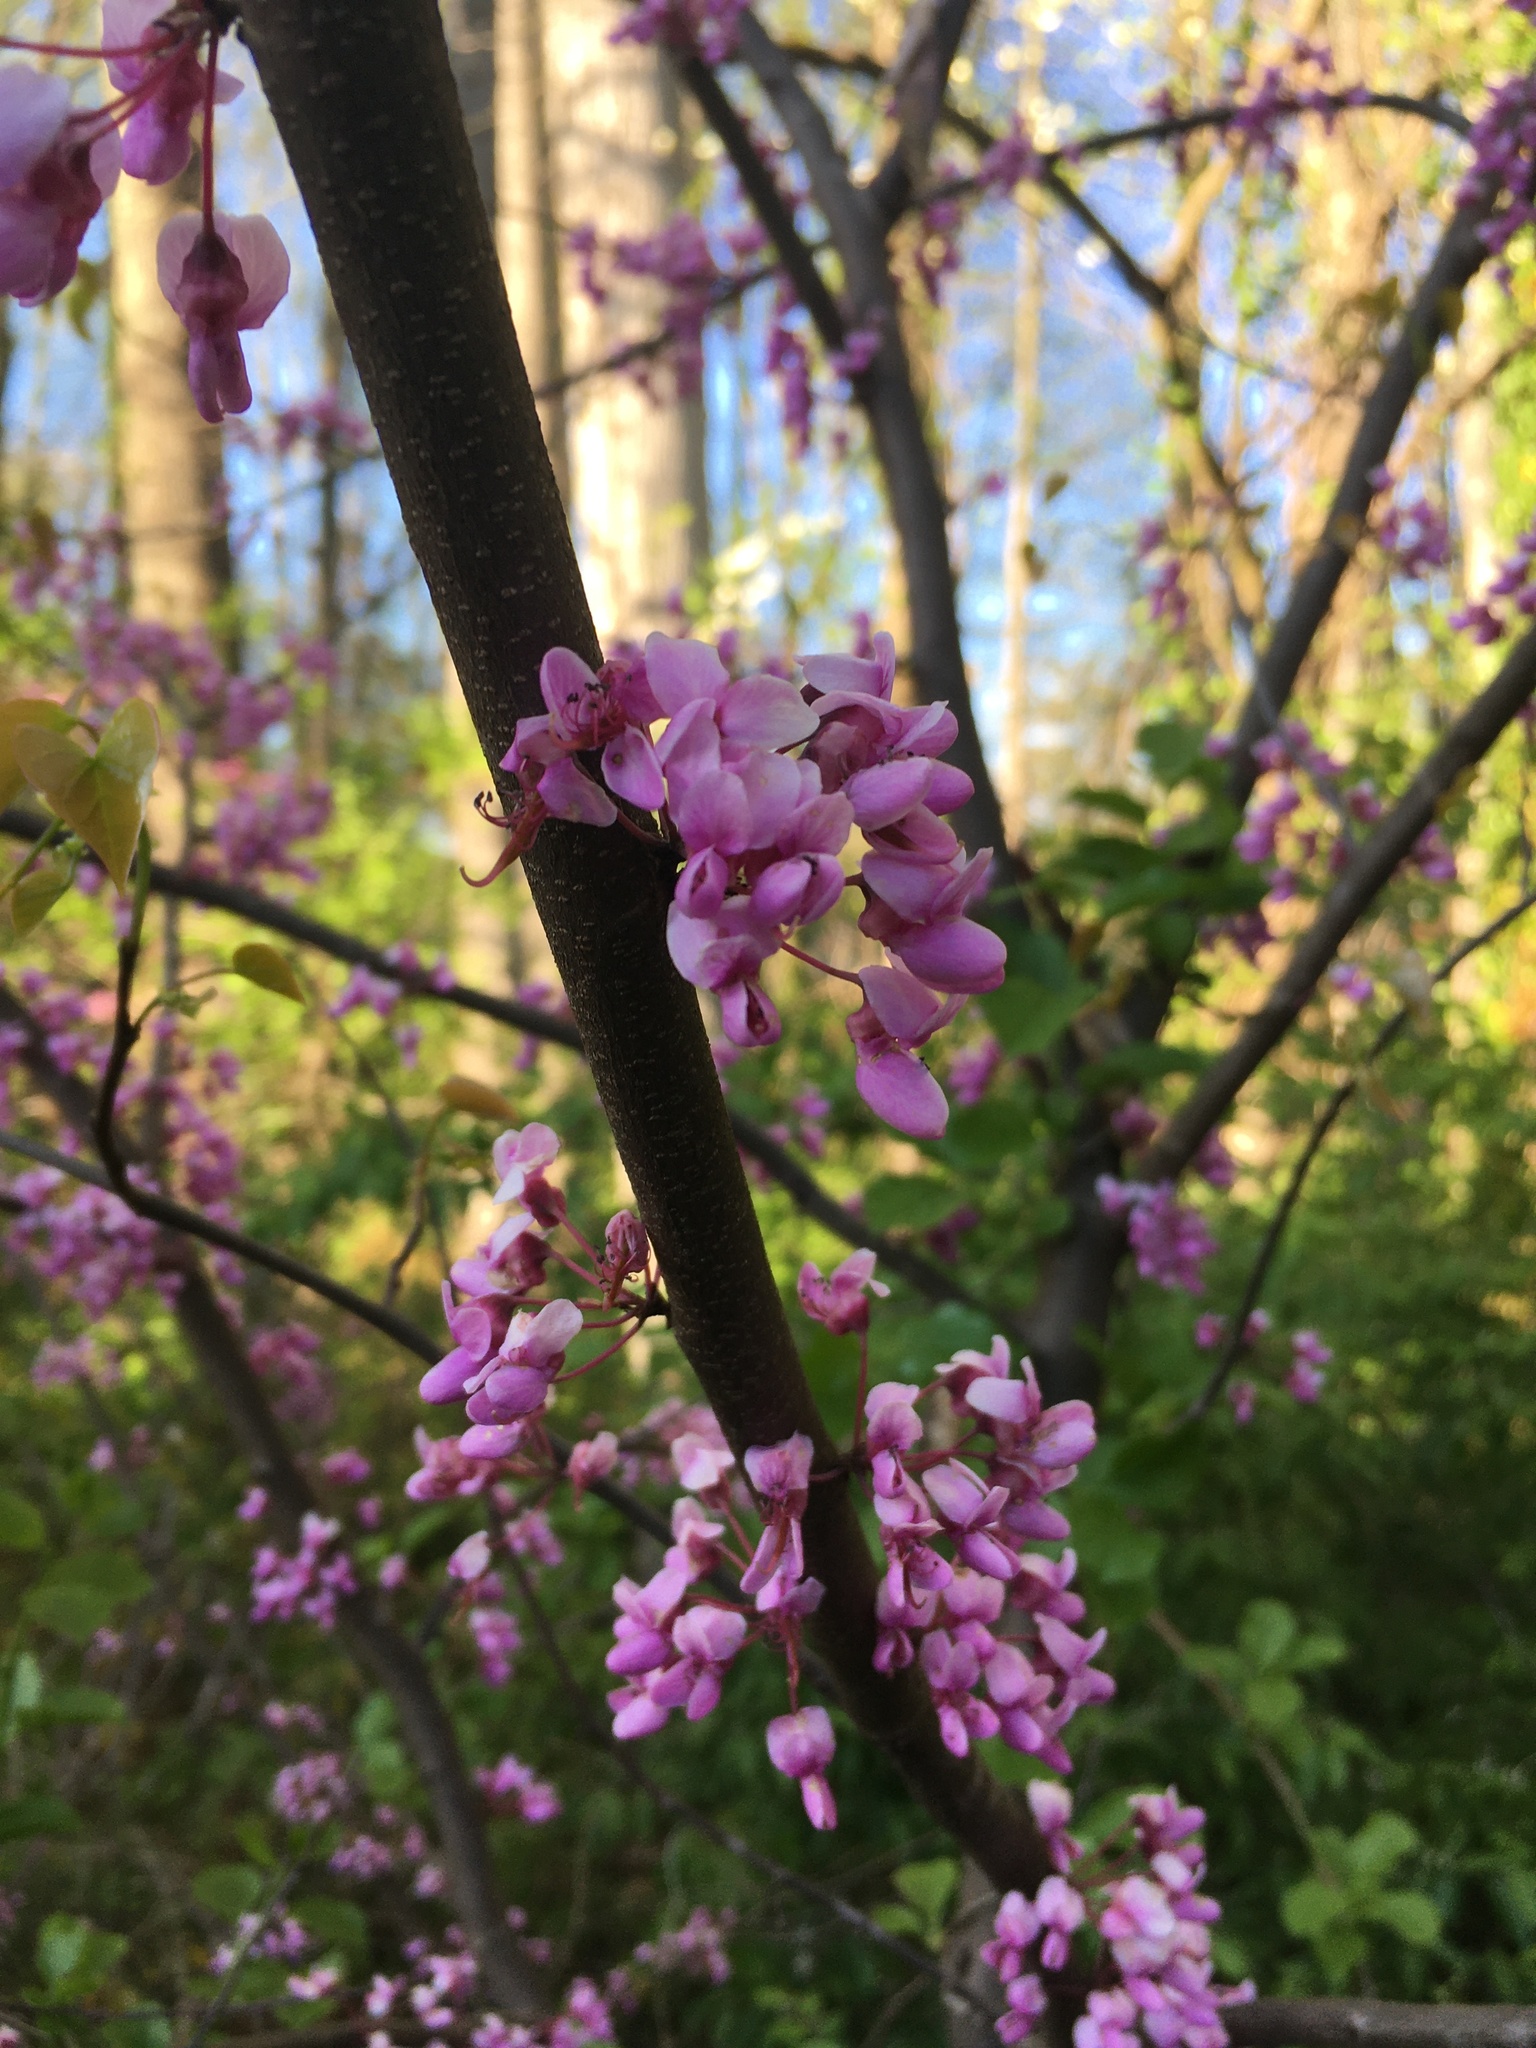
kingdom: Plantae
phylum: Tracheophyta
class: Magnoliopsida
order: Fabales
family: Fabaceae
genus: Cercis
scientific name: Cercis canadensis
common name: Eastern redbud
